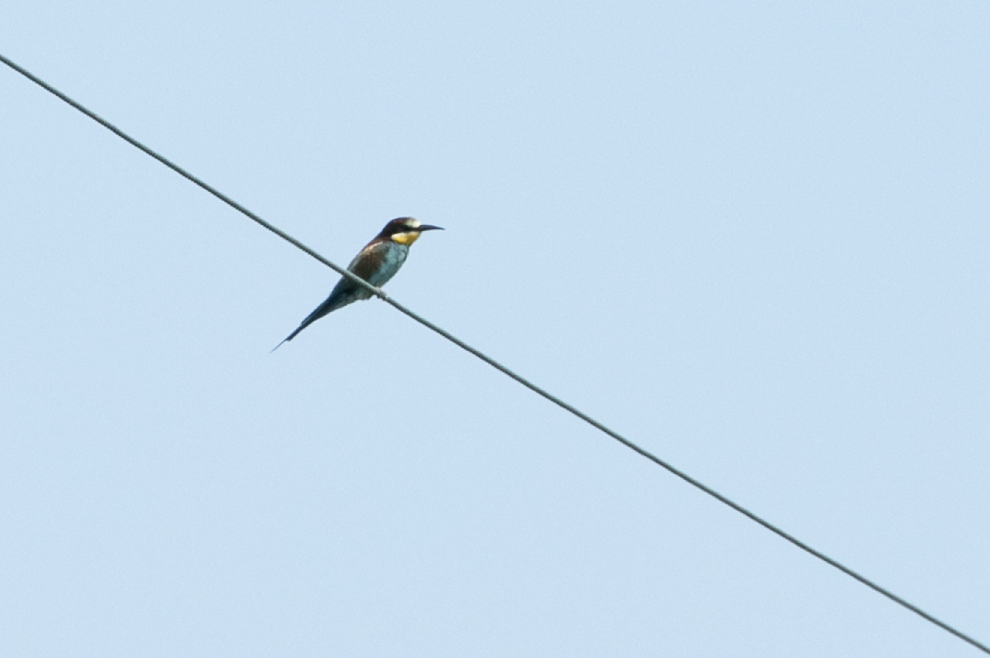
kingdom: Animalia
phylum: Chordata
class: Aves
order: Coraciiformes
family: Meropidae
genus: Merops
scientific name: Merops apiaster
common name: European bee-eater
